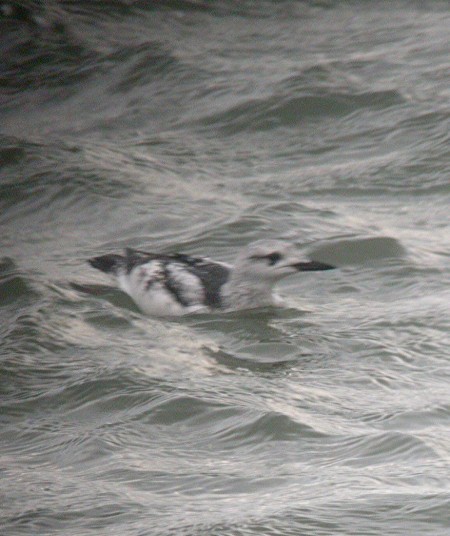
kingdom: Animalia
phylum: Chordata
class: Aves
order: Charadriiformes
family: Alcidae
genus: Cepphus
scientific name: Cepphus grylle
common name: Black guillemot
